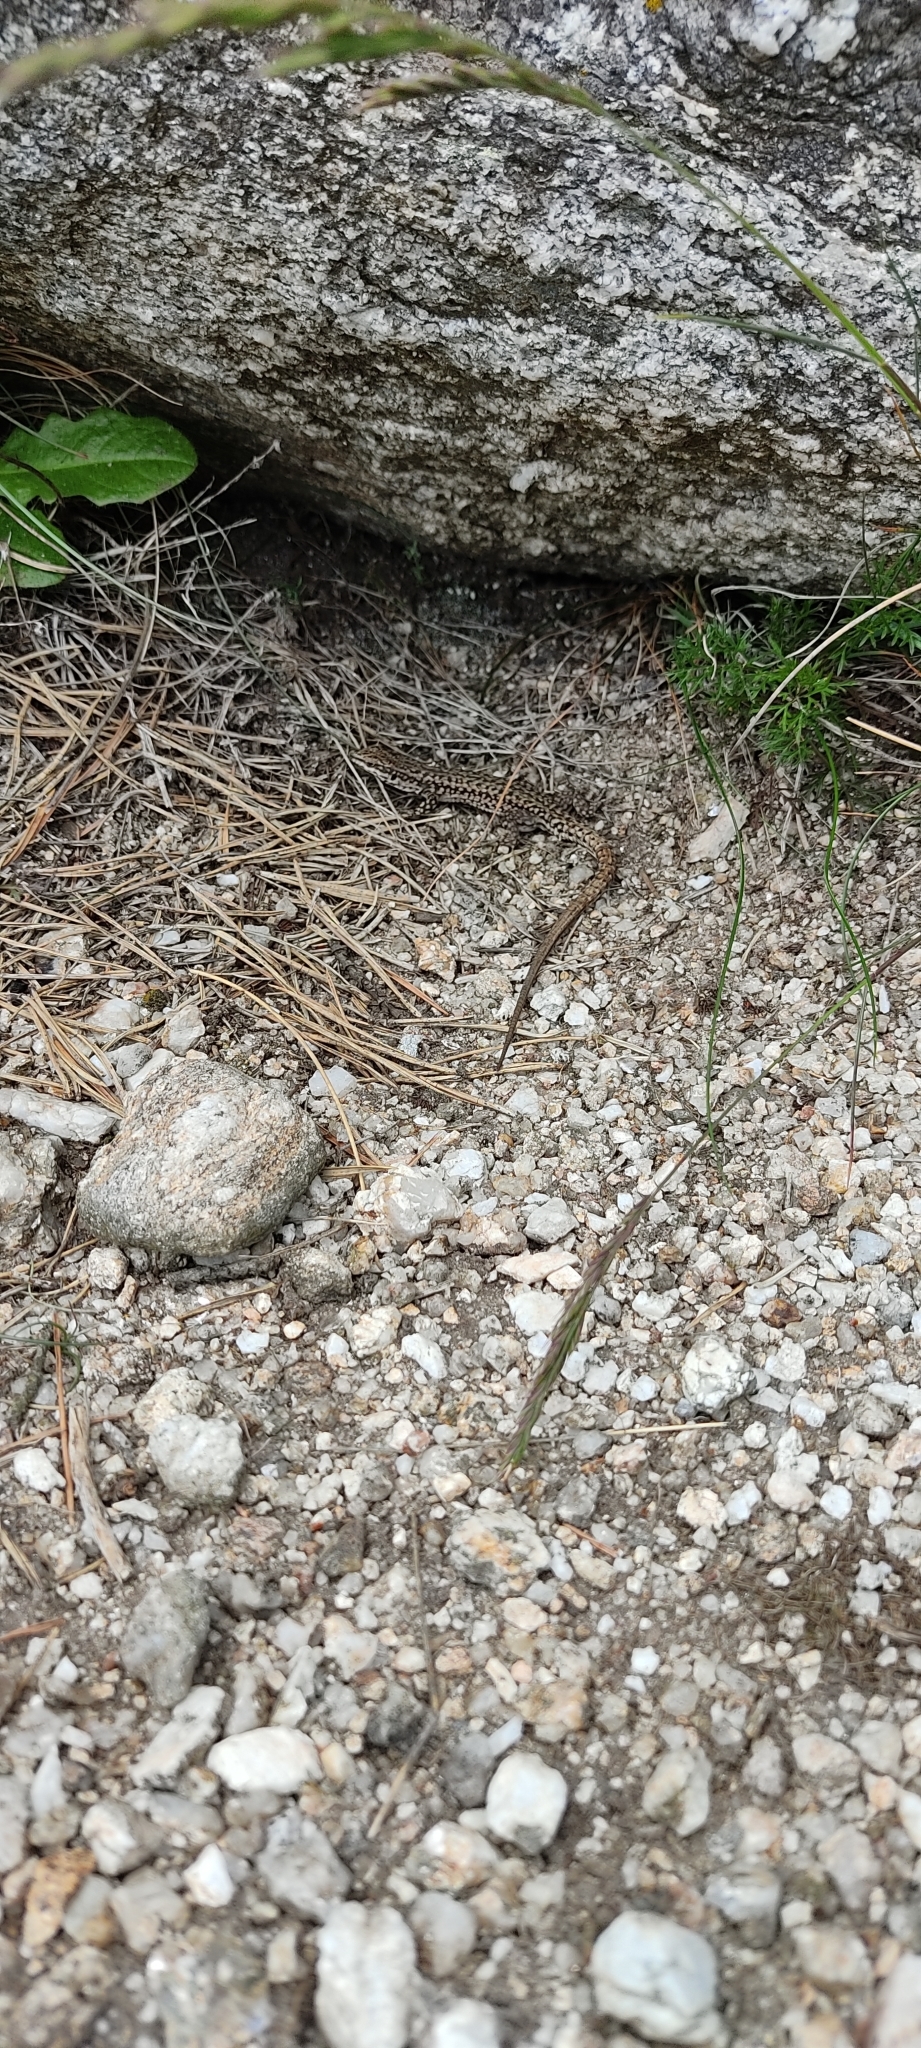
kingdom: Animalia
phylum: Chordata
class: Squamata
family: Lacertidae
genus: Podarcis
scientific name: Podarcis liolepis
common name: Catalonian wall lizard
